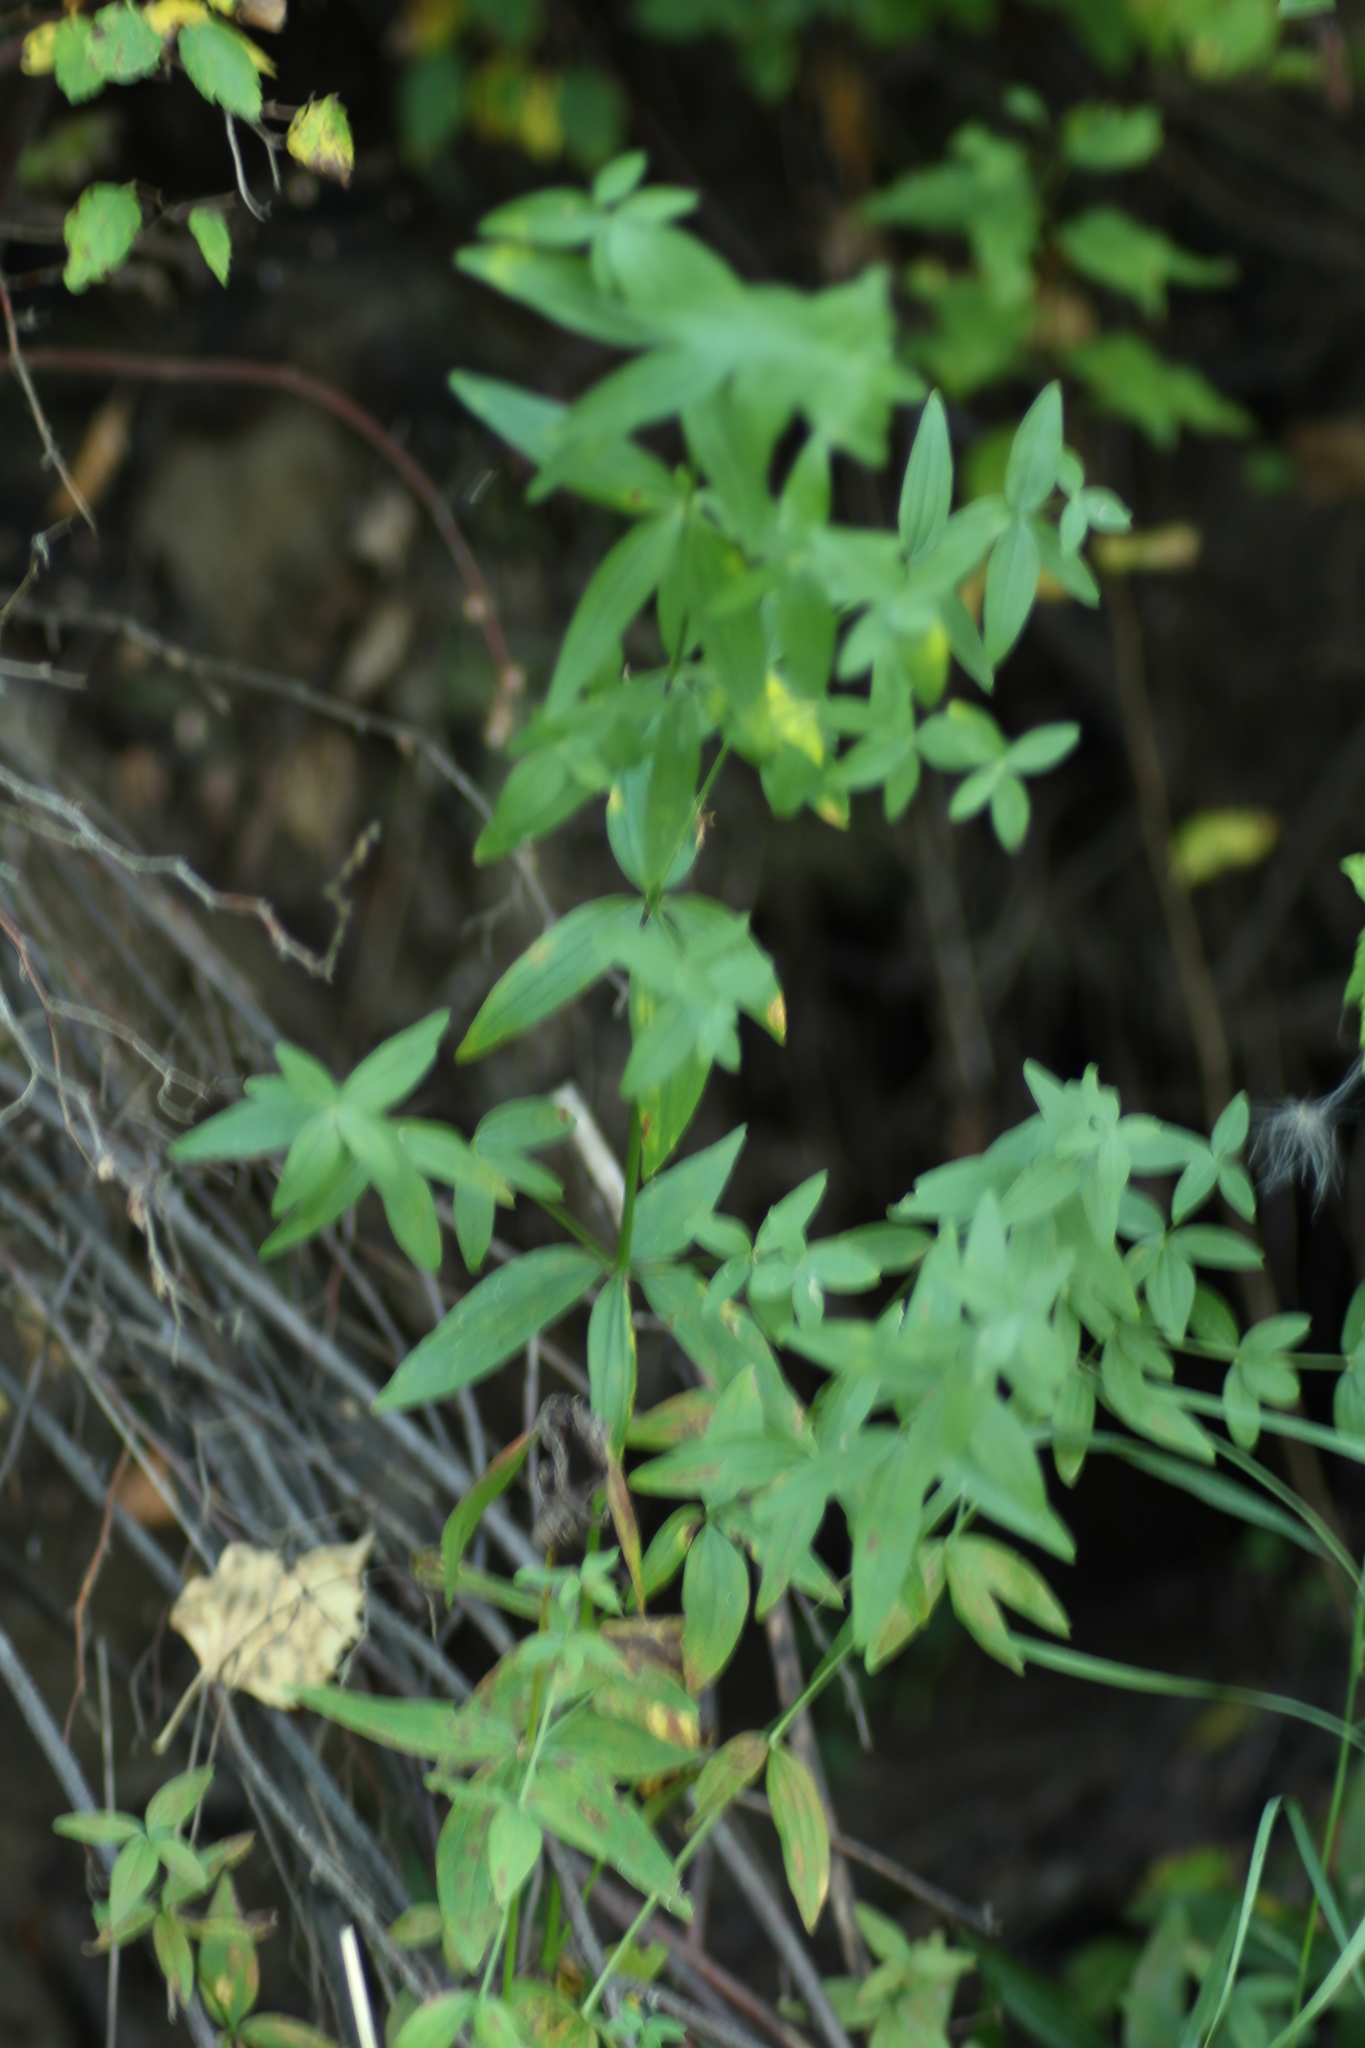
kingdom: Plantae
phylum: Tracheophyta
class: Magnoliopsida
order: Gentianales
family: Rubiaceae
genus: Galium
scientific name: Galium boreale
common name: Northern bedstraw
